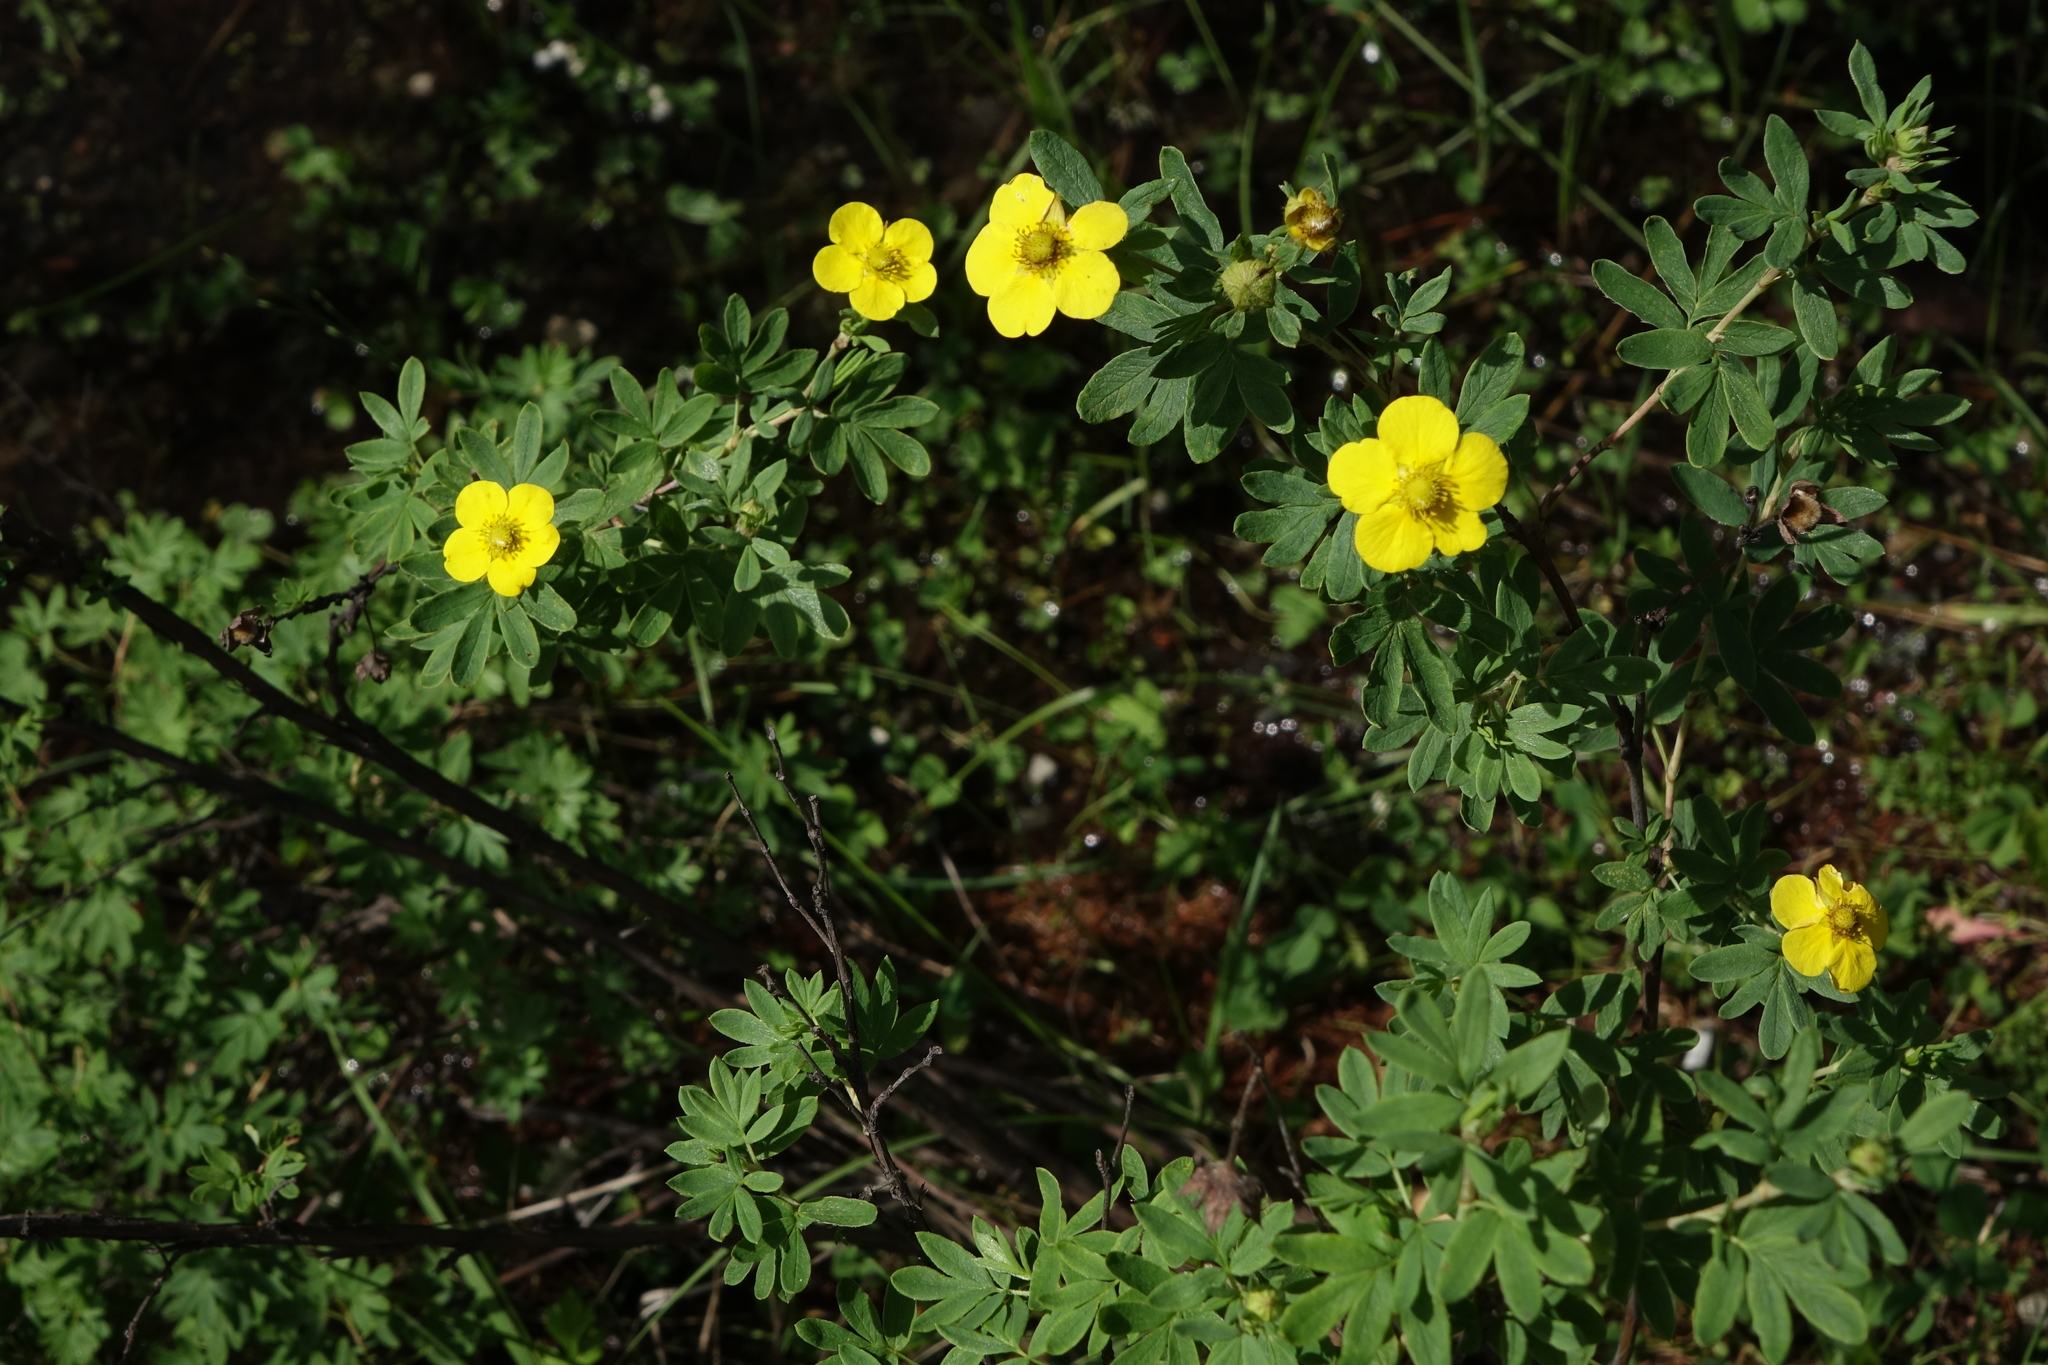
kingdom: Plantae
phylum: Tracheophyta
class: Magnoliopsida
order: Rosales
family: Rosaceae
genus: Dasiphora
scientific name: Dasiphora fruticosa
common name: Shrubby cinquefoil
